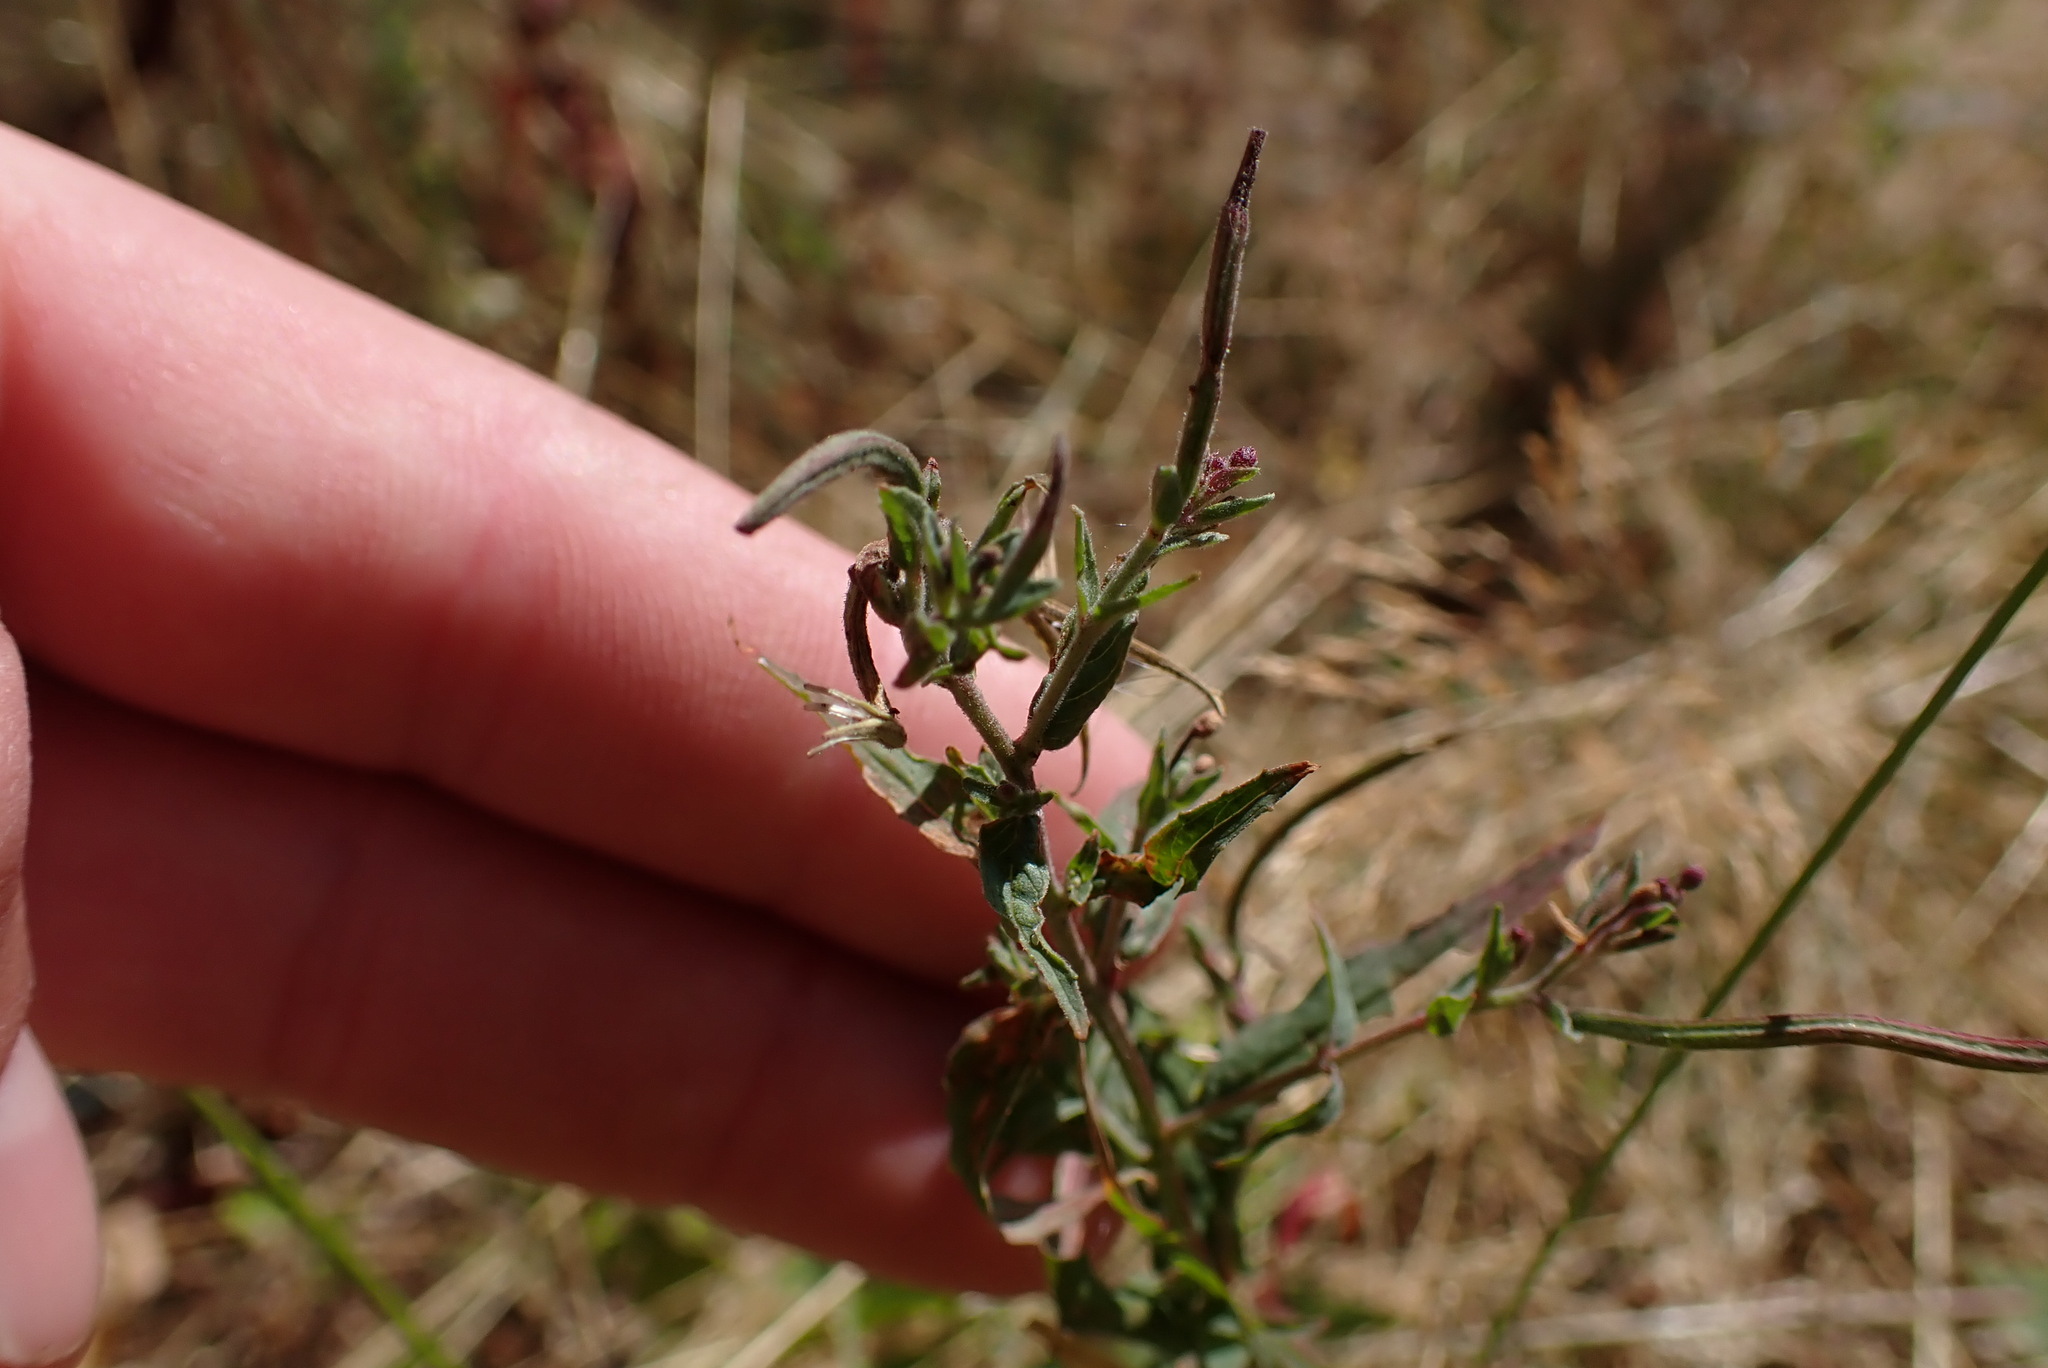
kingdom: Plantae
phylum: Tracheophyta
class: Magnoliopsida
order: Myrtales
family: Onagraceae
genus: Epilobium
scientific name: Epilobium ciliatum
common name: American willowherb
